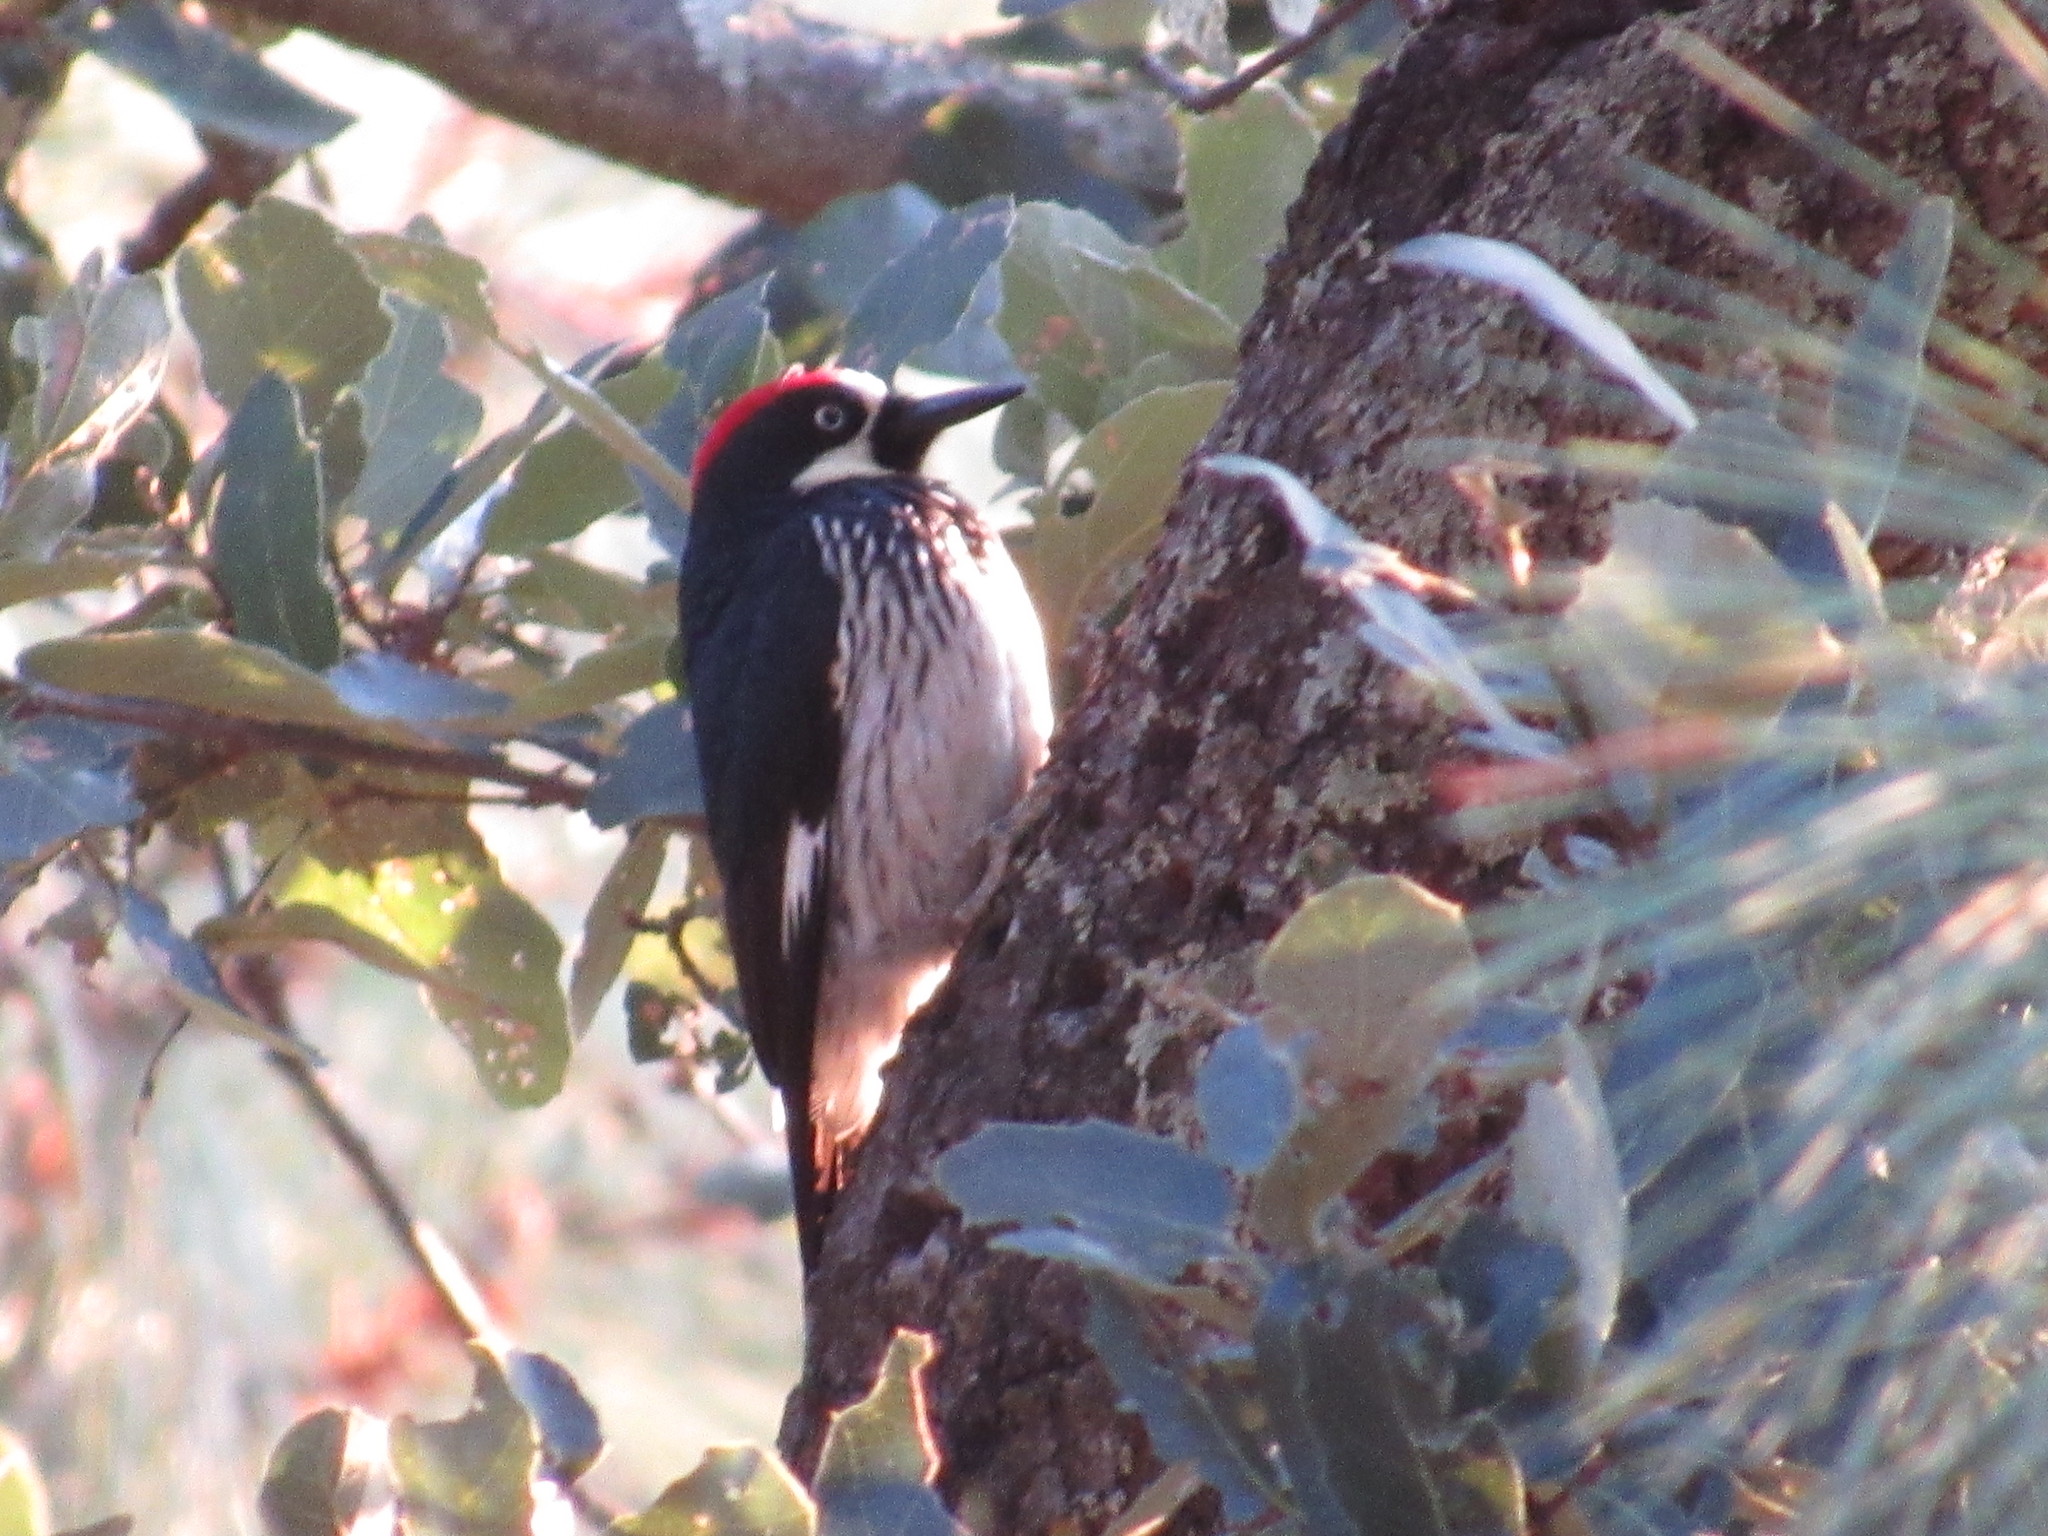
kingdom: Animalia
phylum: Chordata
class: Aves
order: Piciformes
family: Picidae
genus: Melanerpes
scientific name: Melanerpes formicivorus
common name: Acorn woodpecker
